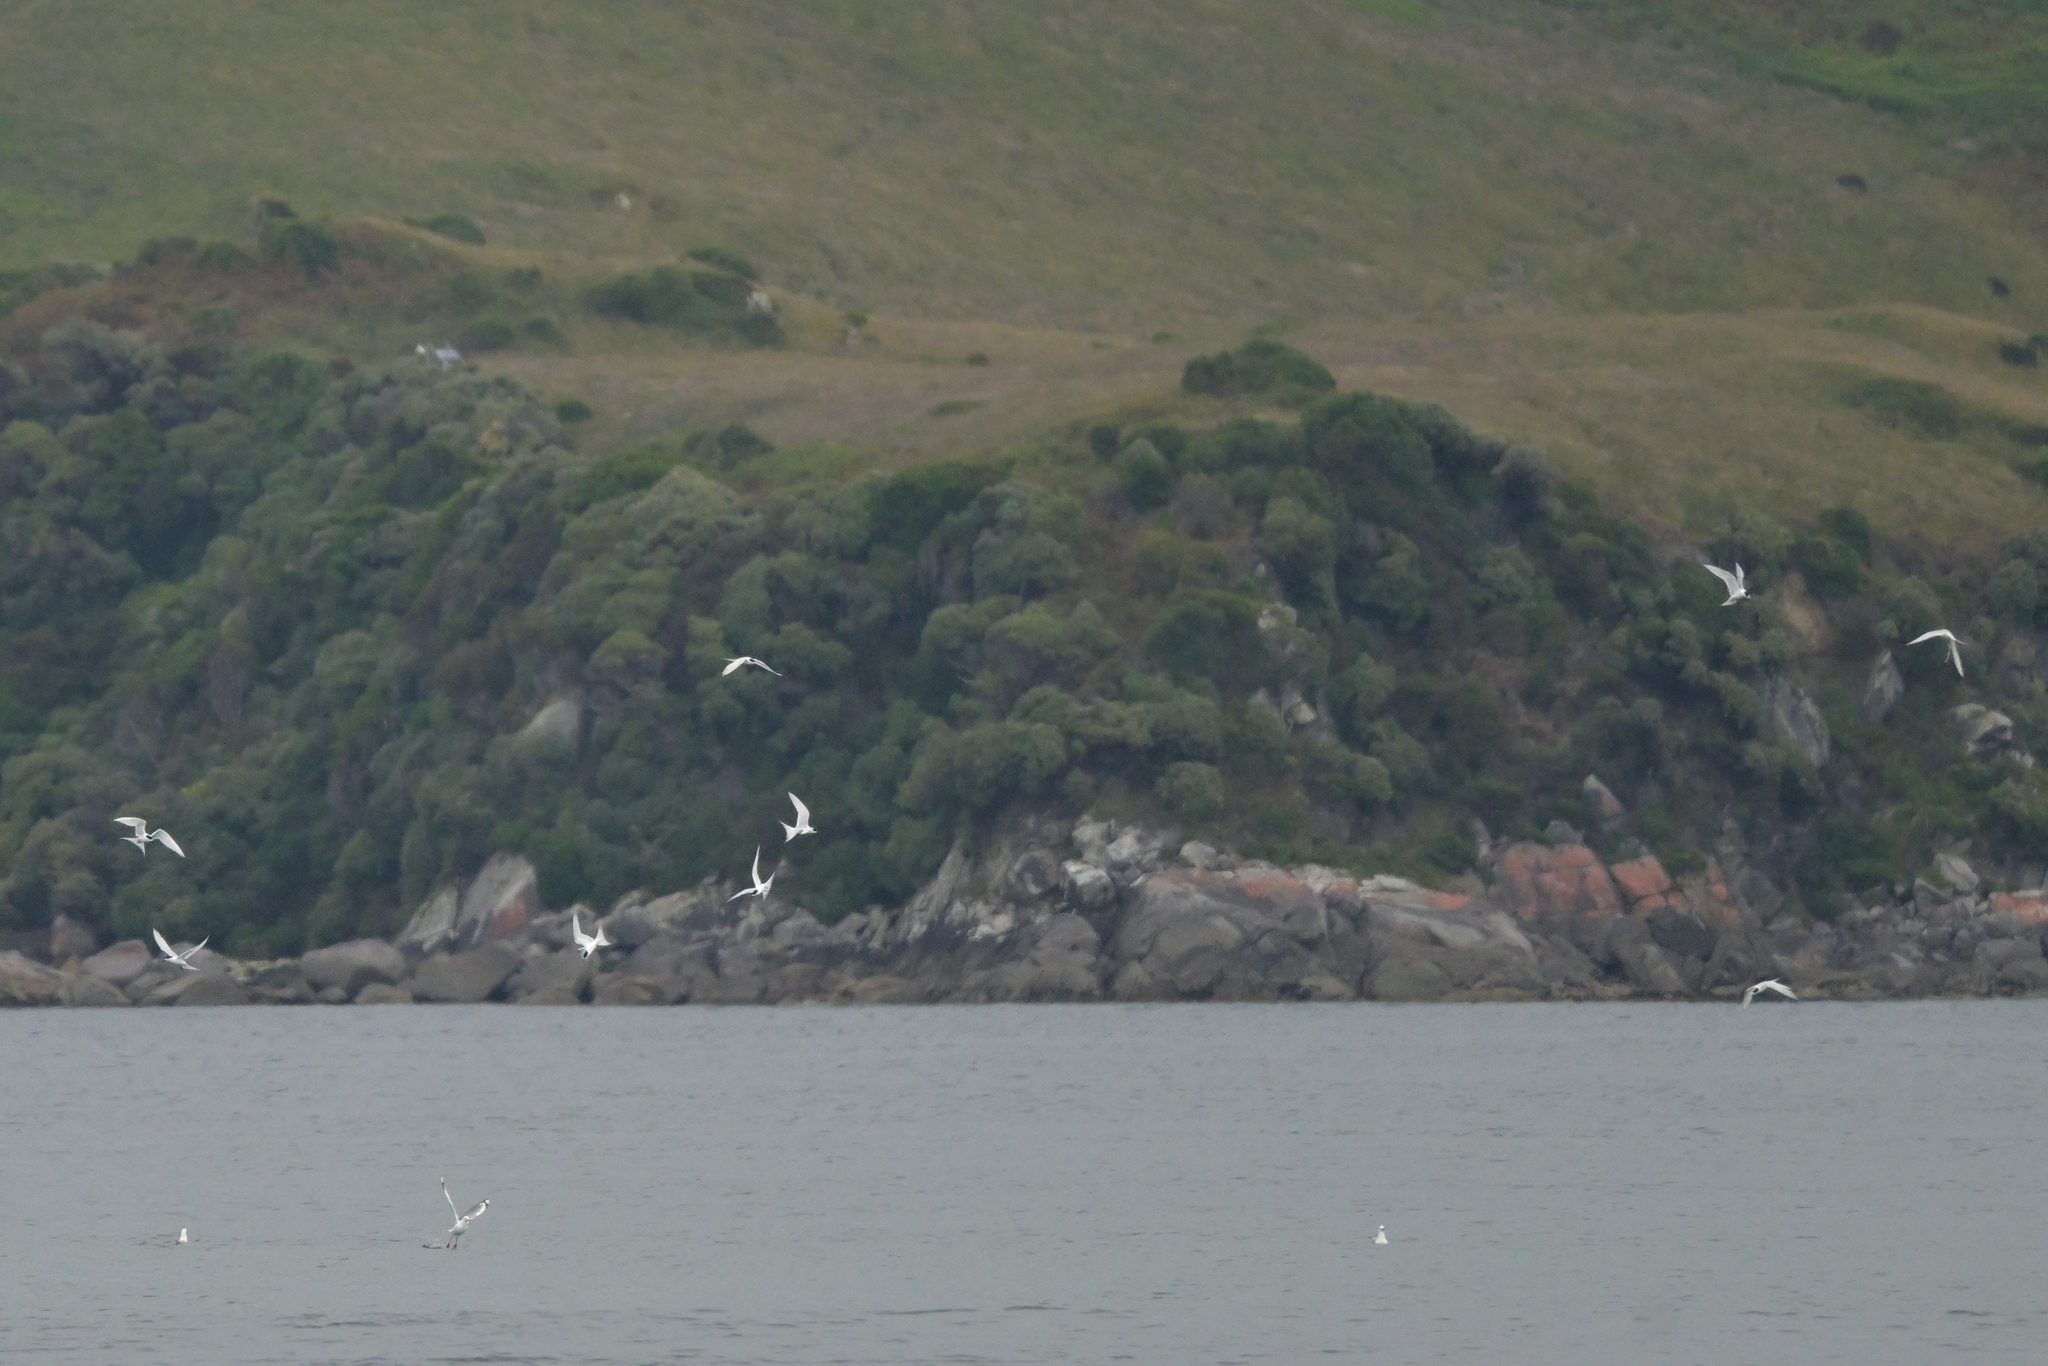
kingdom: Animalia
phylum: Chordata
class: Aves
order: Charadriiformes
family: Laridae
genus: Sterna
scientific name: Sterna striata
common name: White-fronted tern
